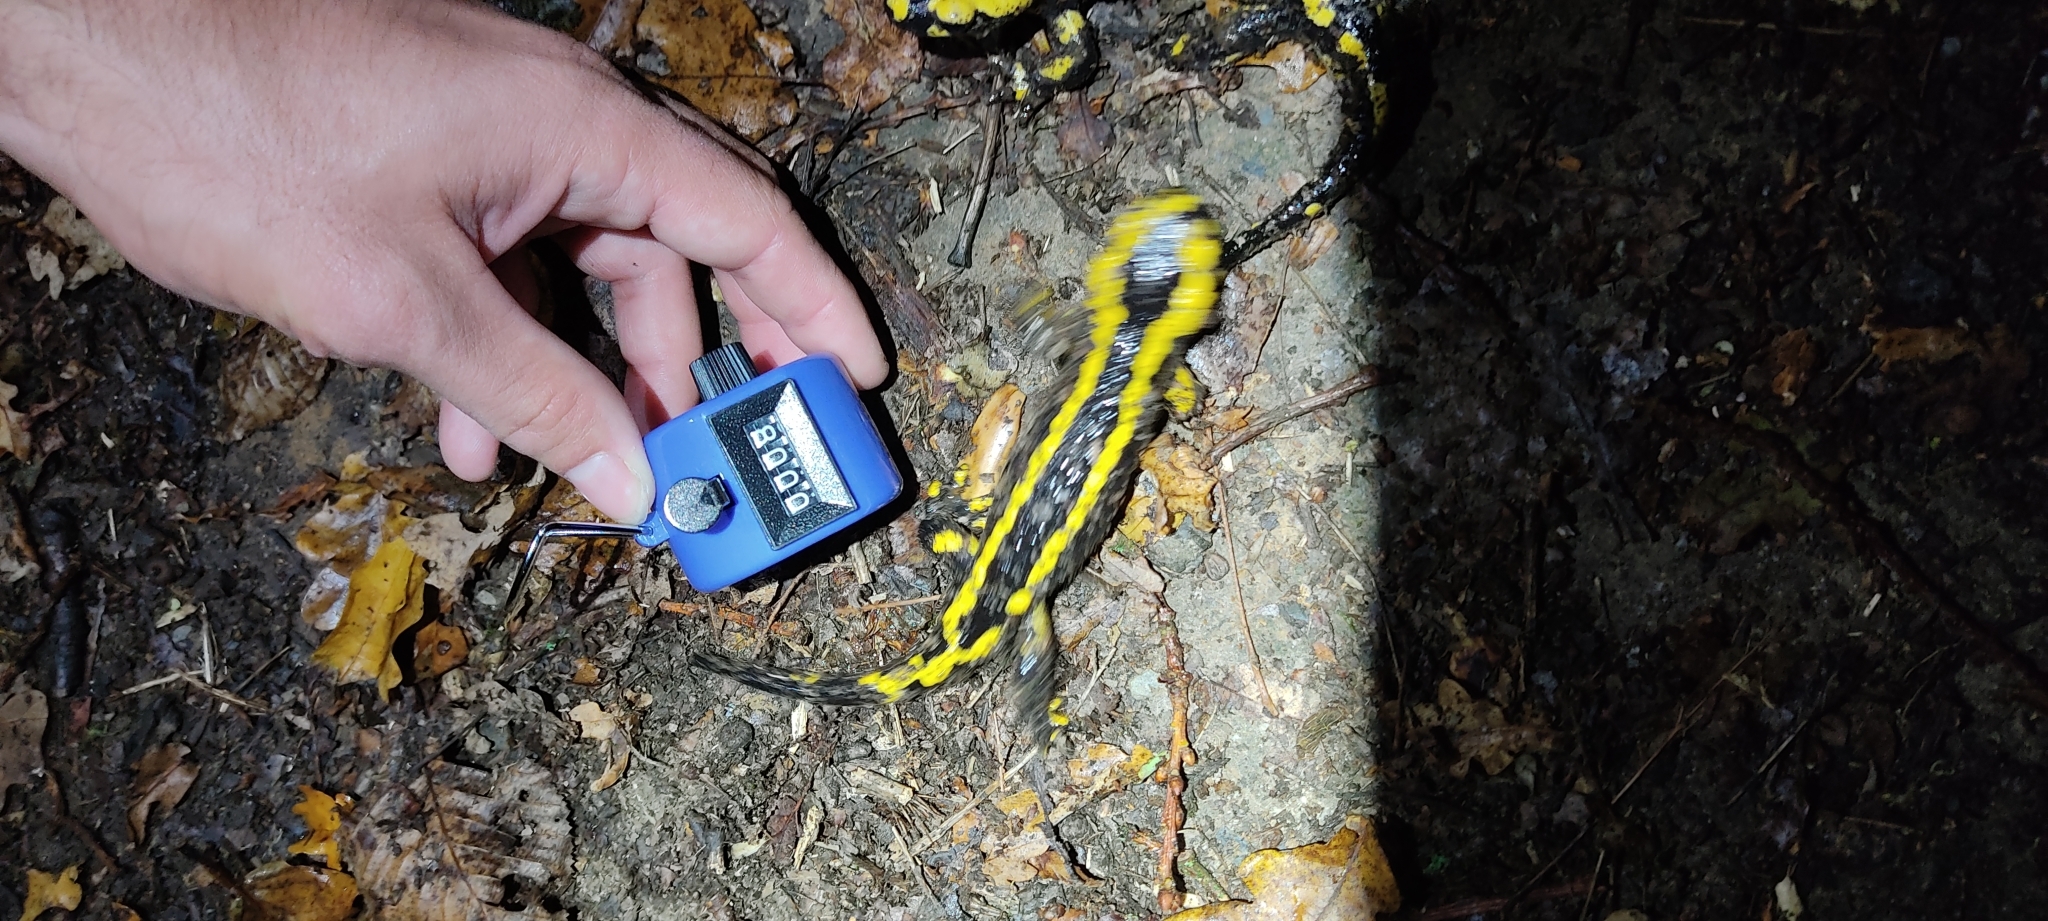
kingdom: Animalia
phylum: Chordata
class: Amphibia
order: Caudata
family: Salamandridae
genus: Salamandra
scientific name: Salamandra salamandra
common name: Fire salamander
